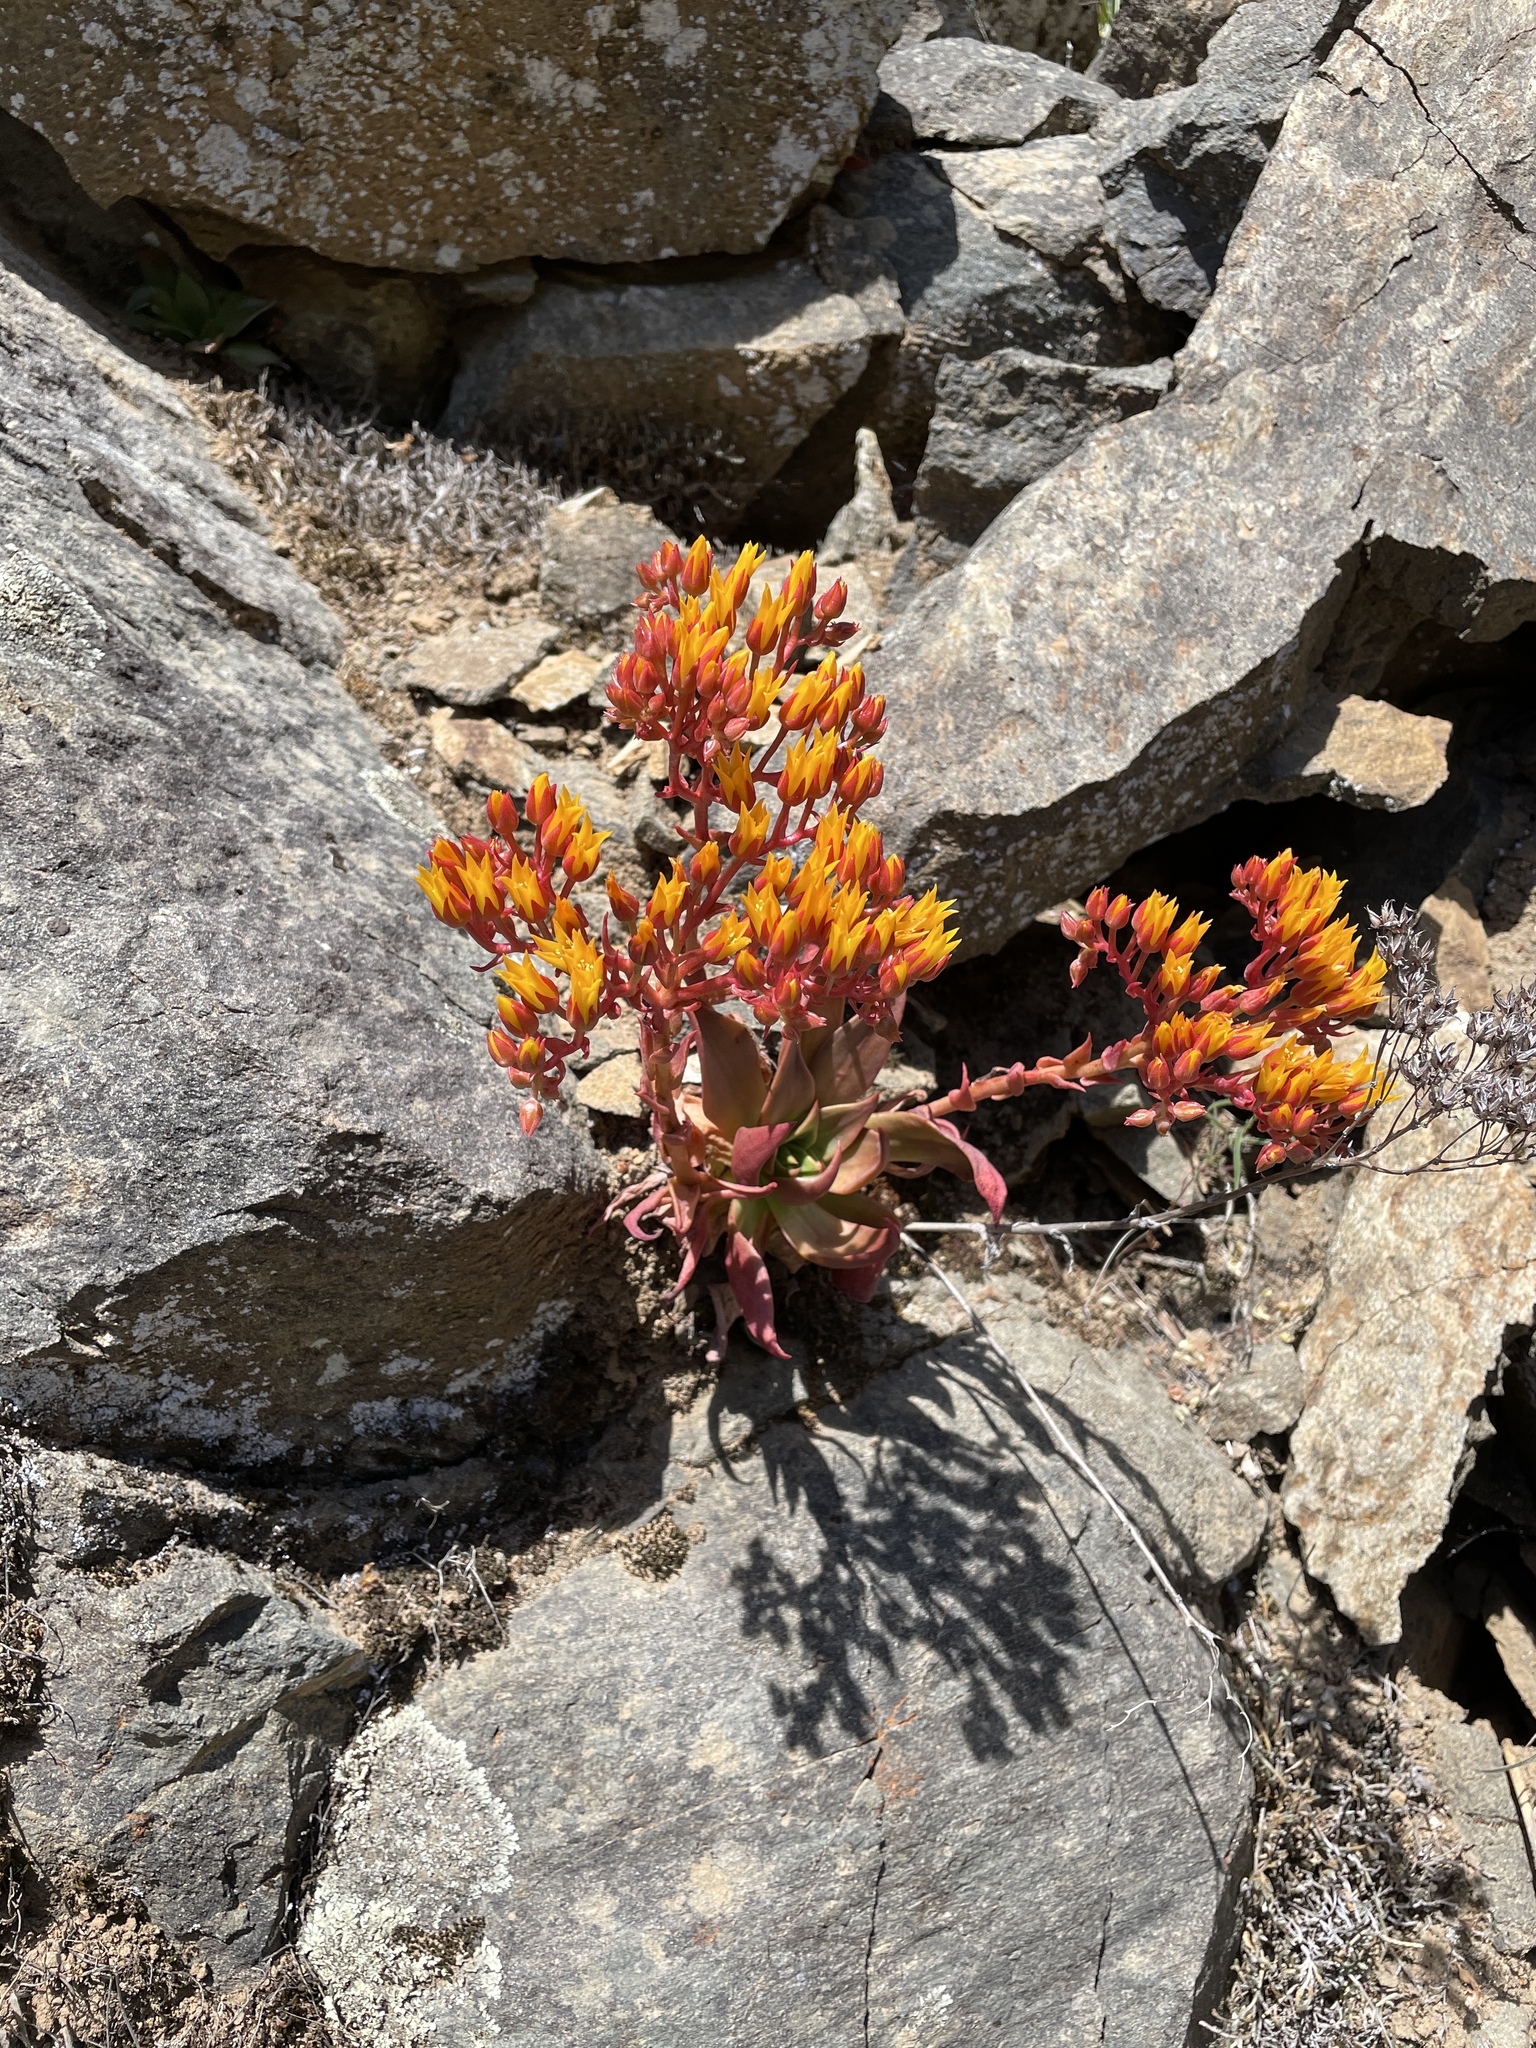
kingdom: Plantae
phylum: Tracheophyta
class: Magnoliopsida
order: Saxifragales
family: Crassulaceae
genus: Dudleya
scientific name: Dudleya cymosa
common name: Canyon dudleya
